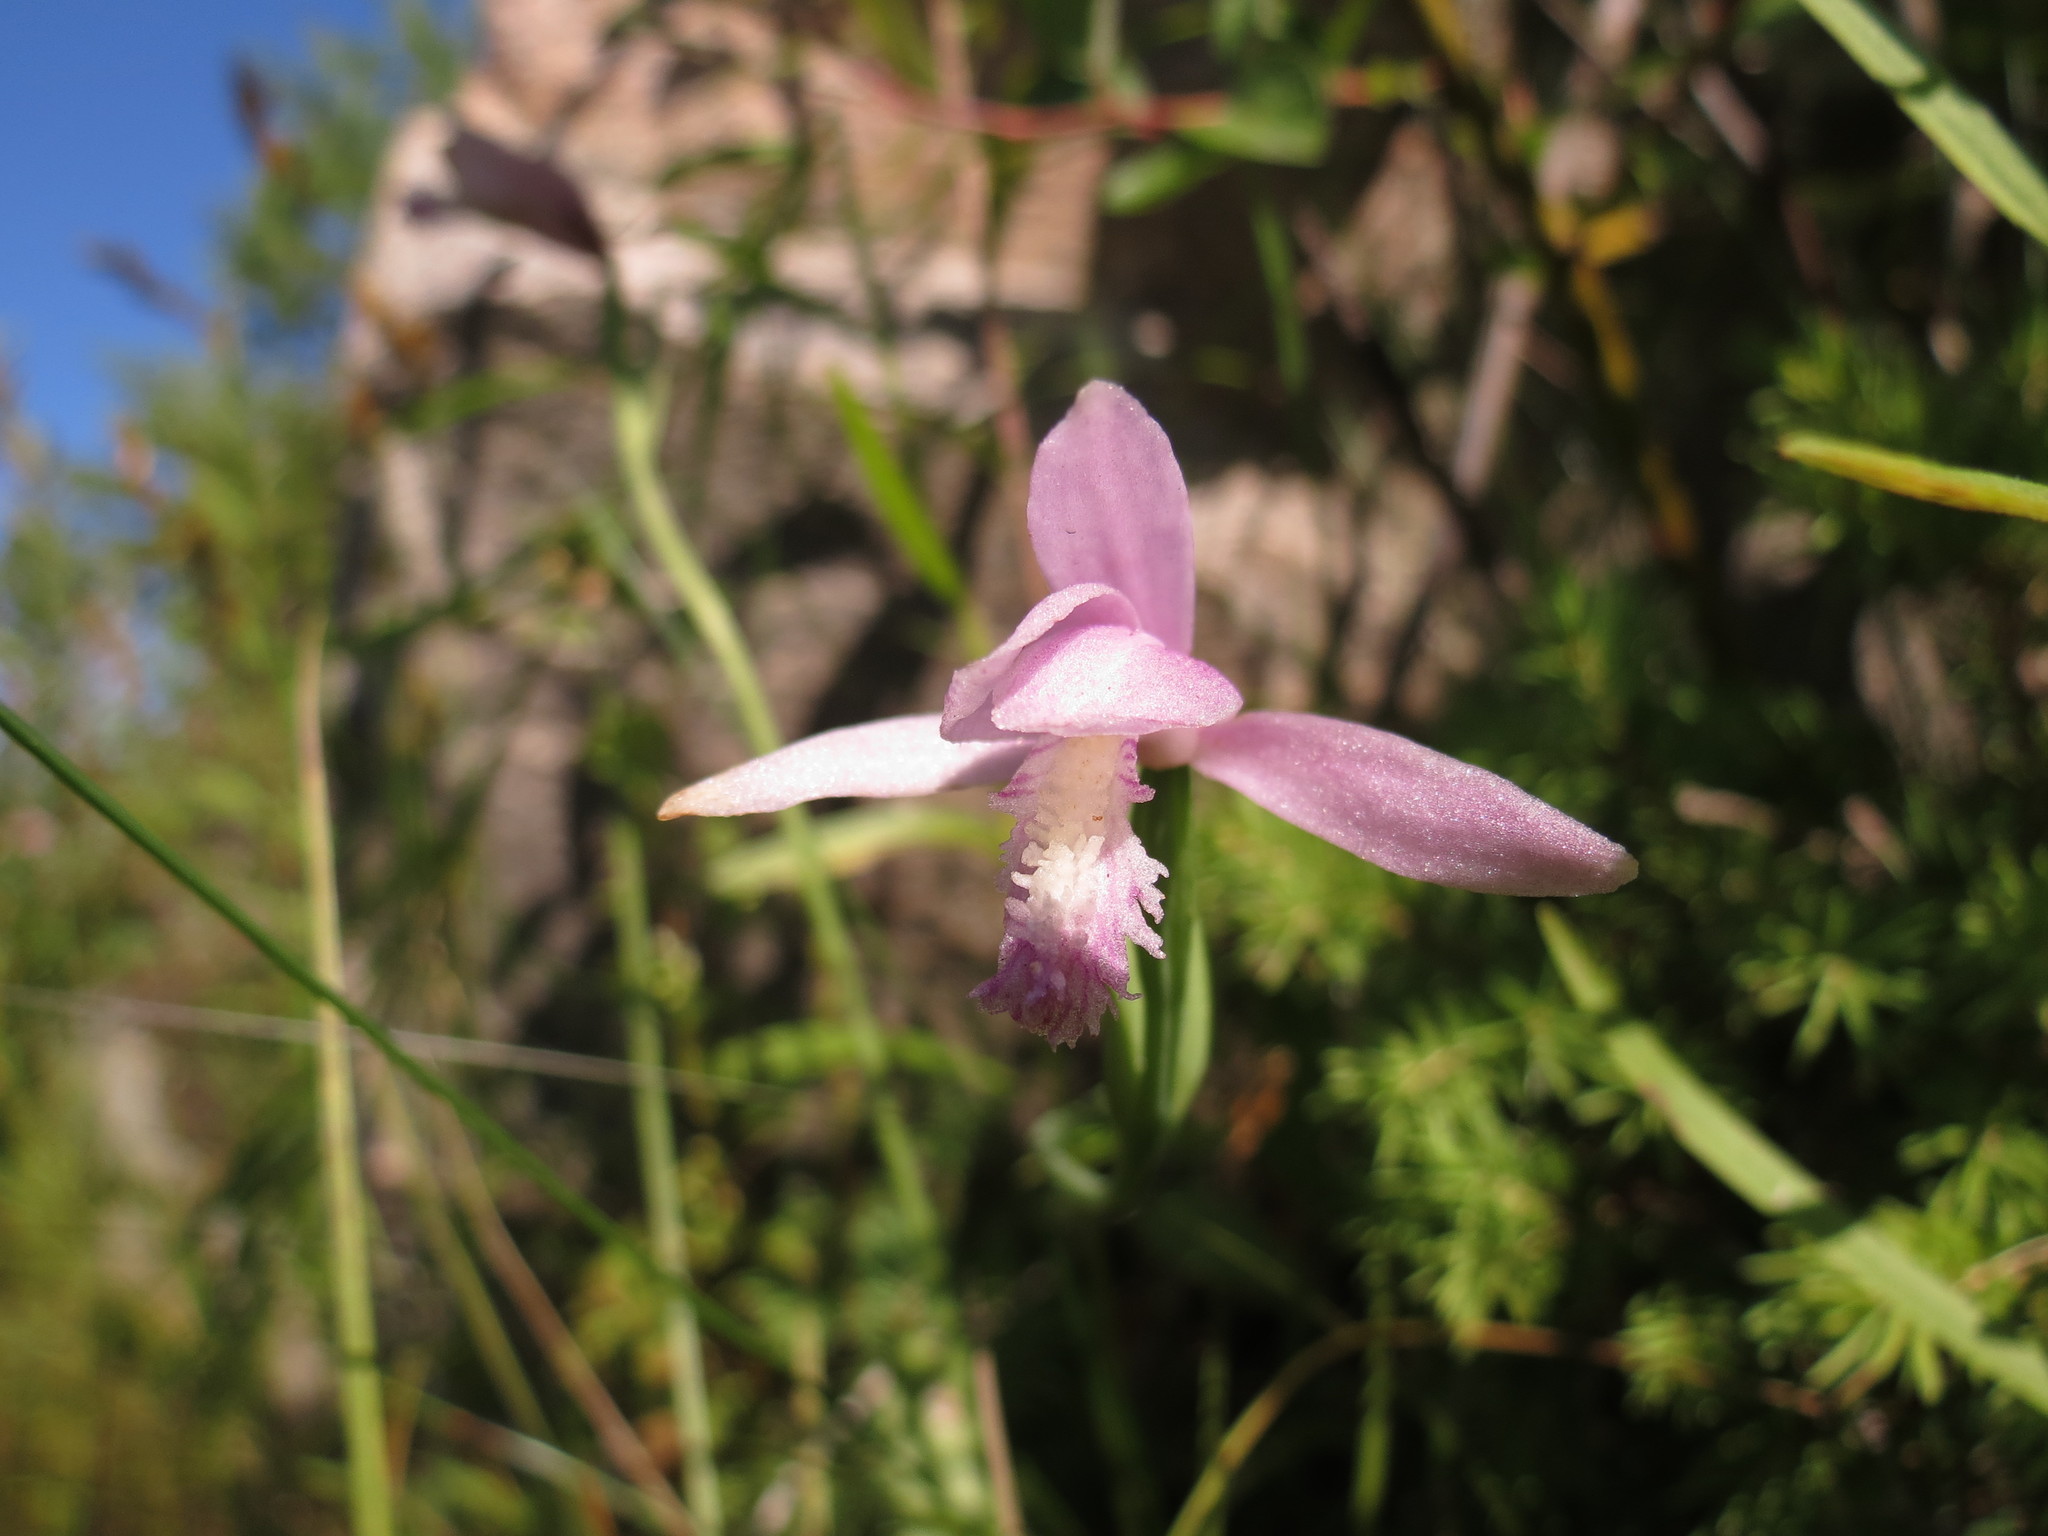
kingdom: Plantae
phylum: Tracheophyta
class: Liliopsida
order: Asparagales
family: Orchidaceae
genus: Pogonia
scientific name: Pogonia ophioglossoides
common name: Rose pogonia
